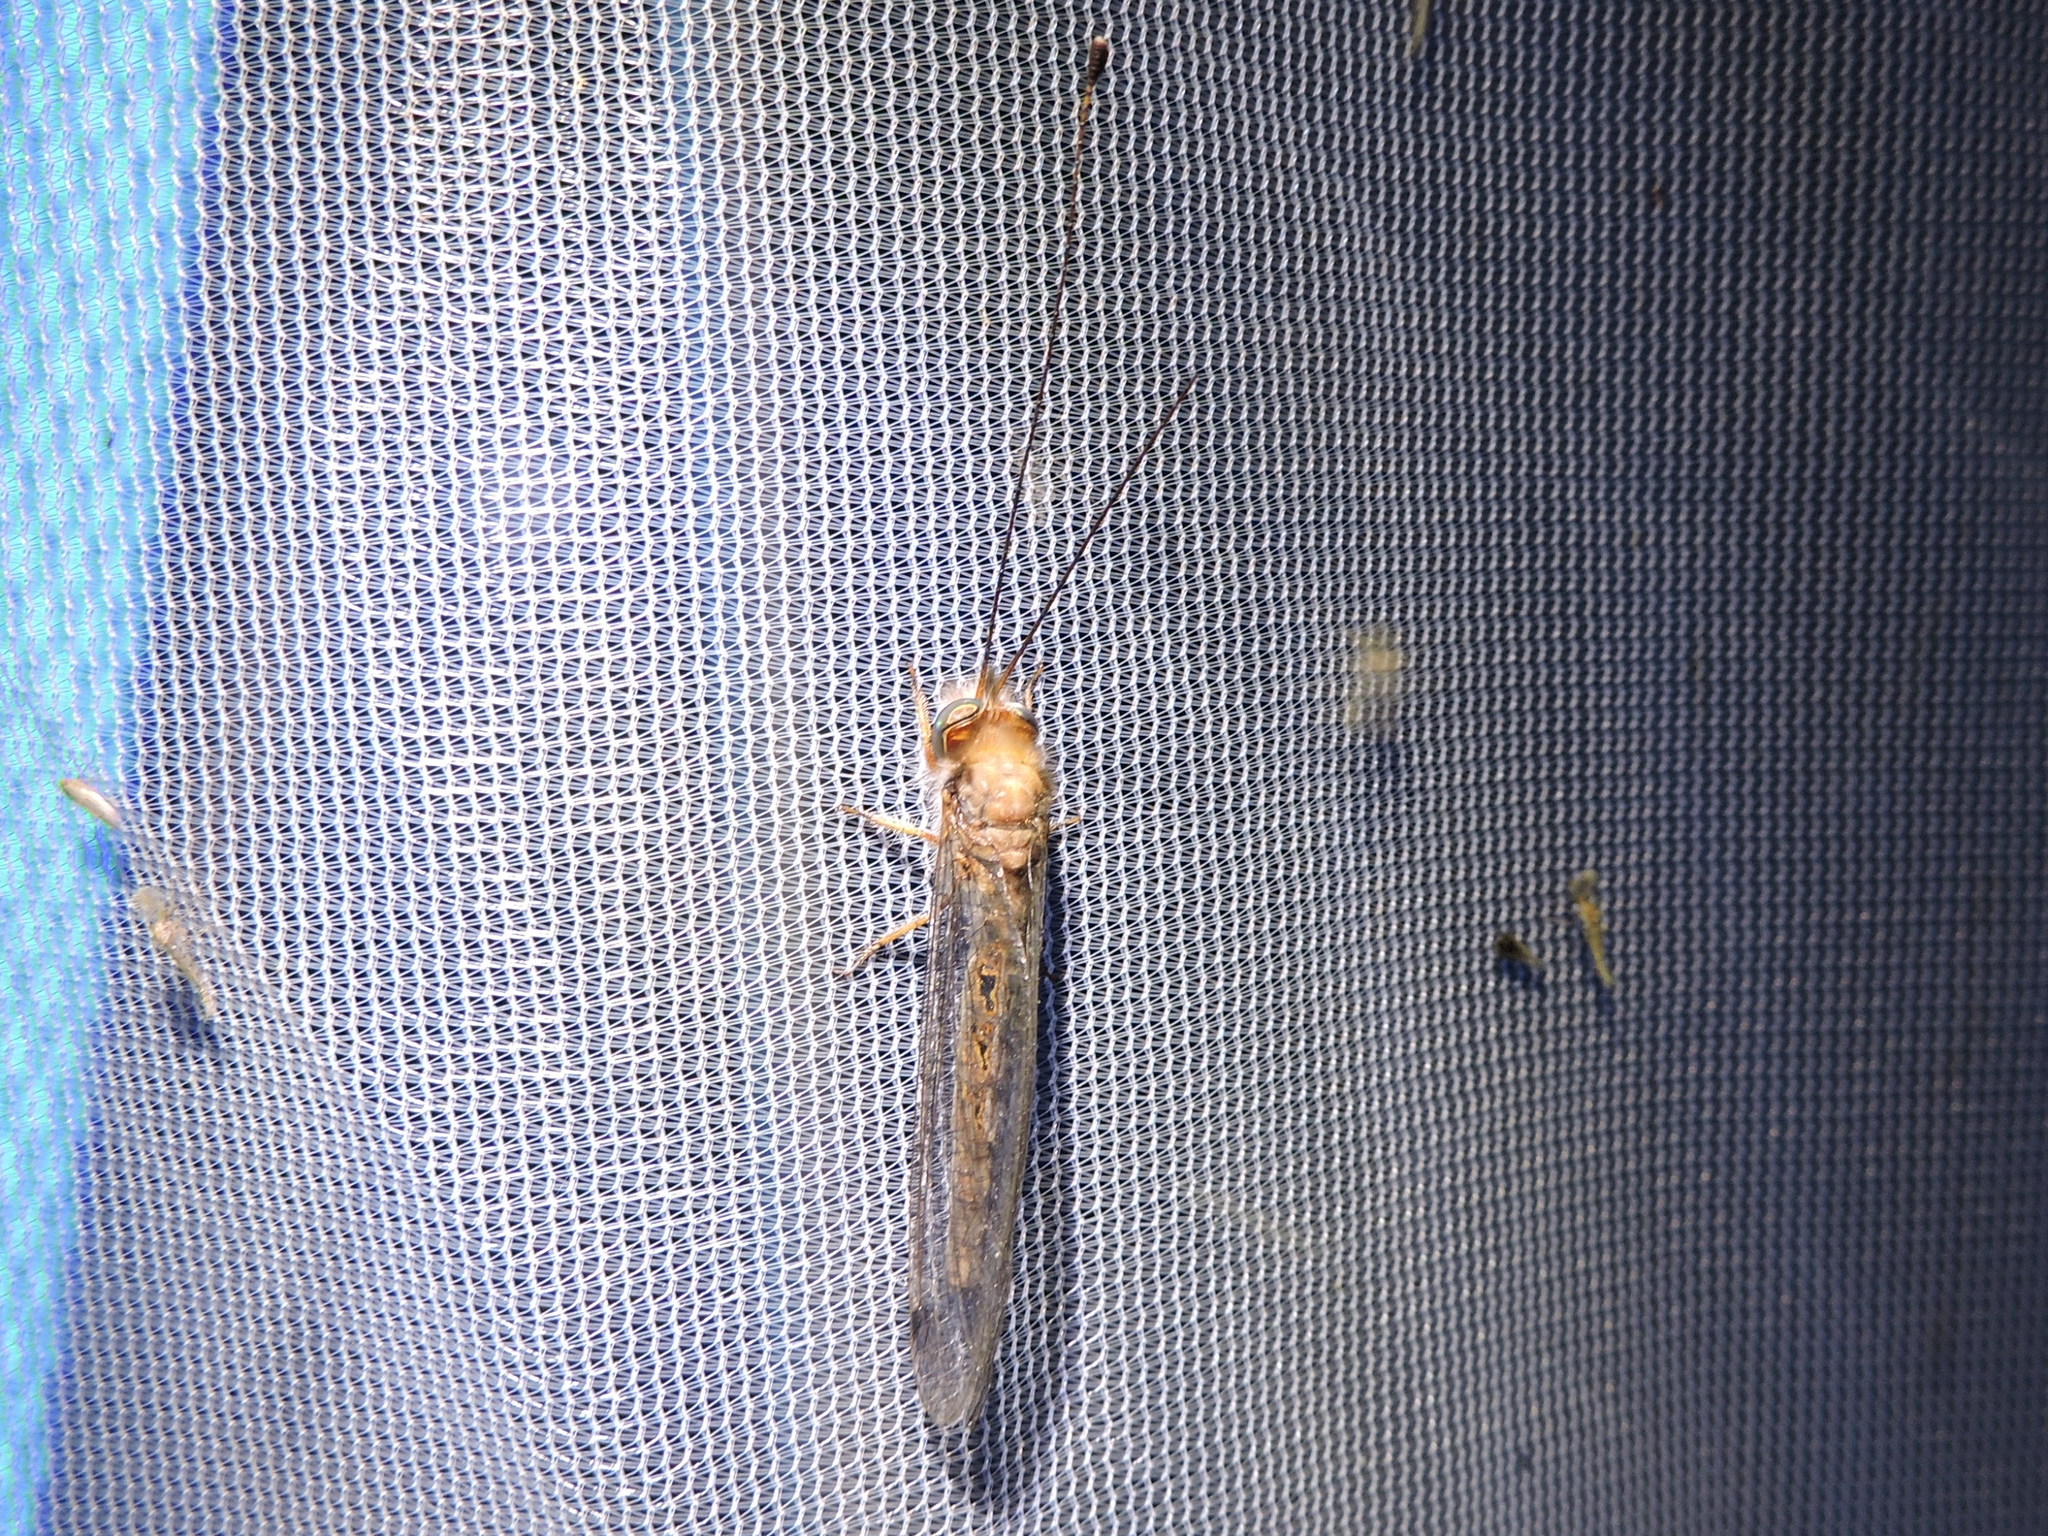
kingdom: Animalia
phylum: Arthropoda
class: Insecta
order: Neuroptera
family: Ascalaphidae
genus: Ululodes
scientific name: Ululodes macleayanus
